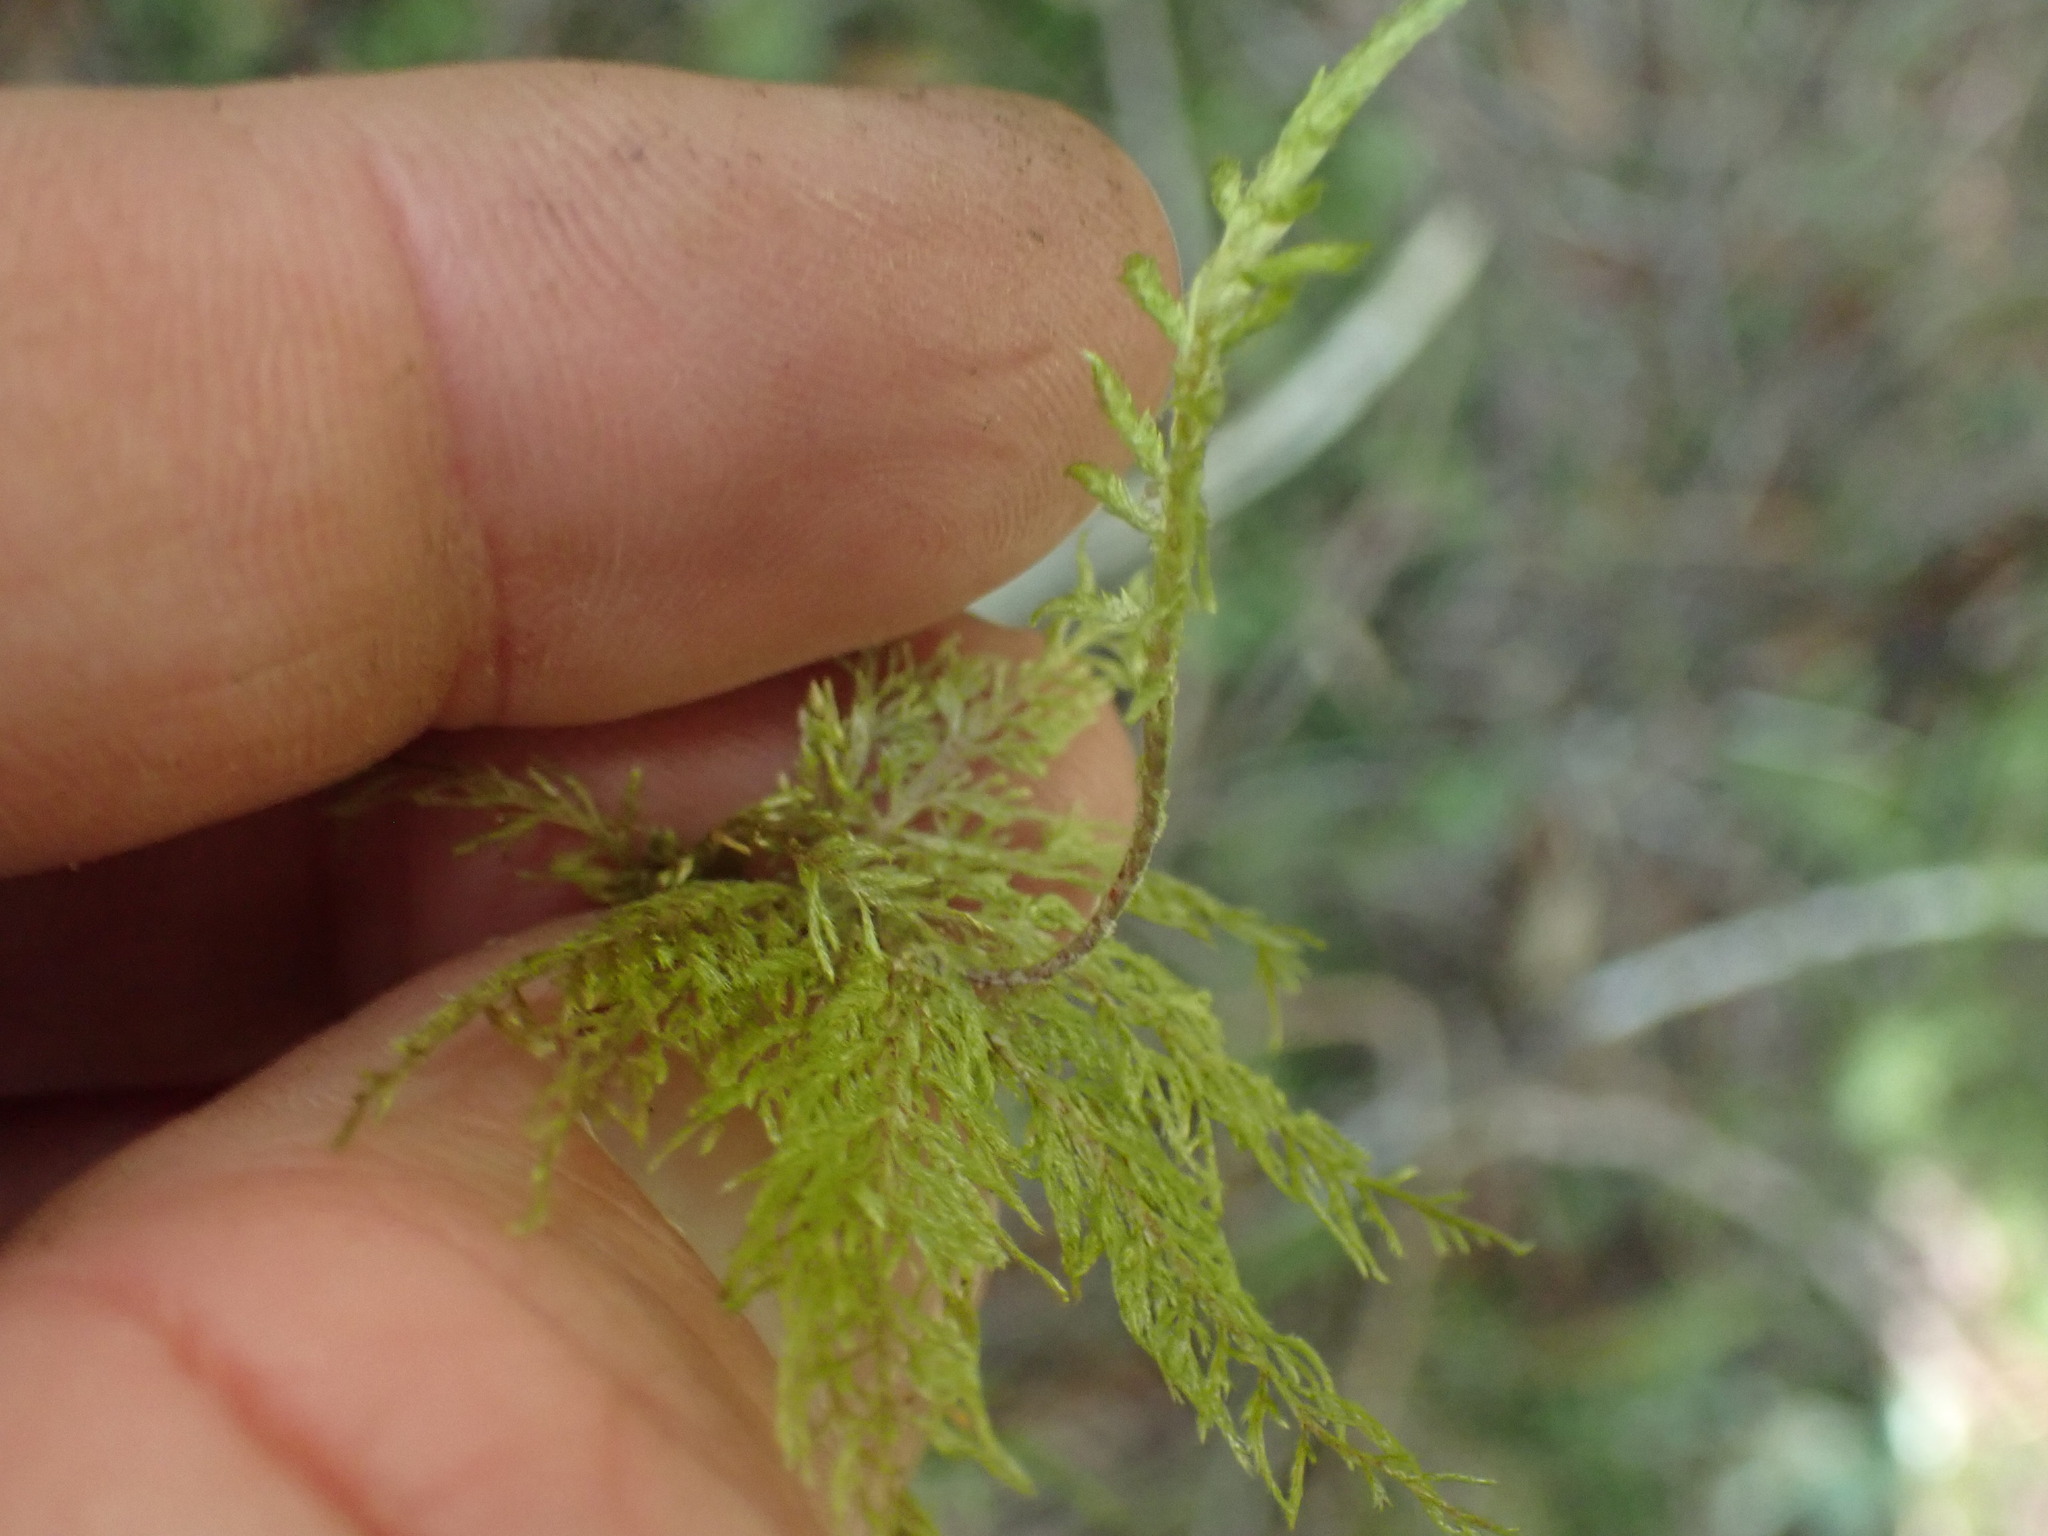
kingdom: Plantae
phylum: Bryophyta
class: Bryopsida
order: Hypnales
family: Hylocomiaceae
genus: Hylocomium
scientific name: Hylocomium splendens
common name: Stairstep moss
